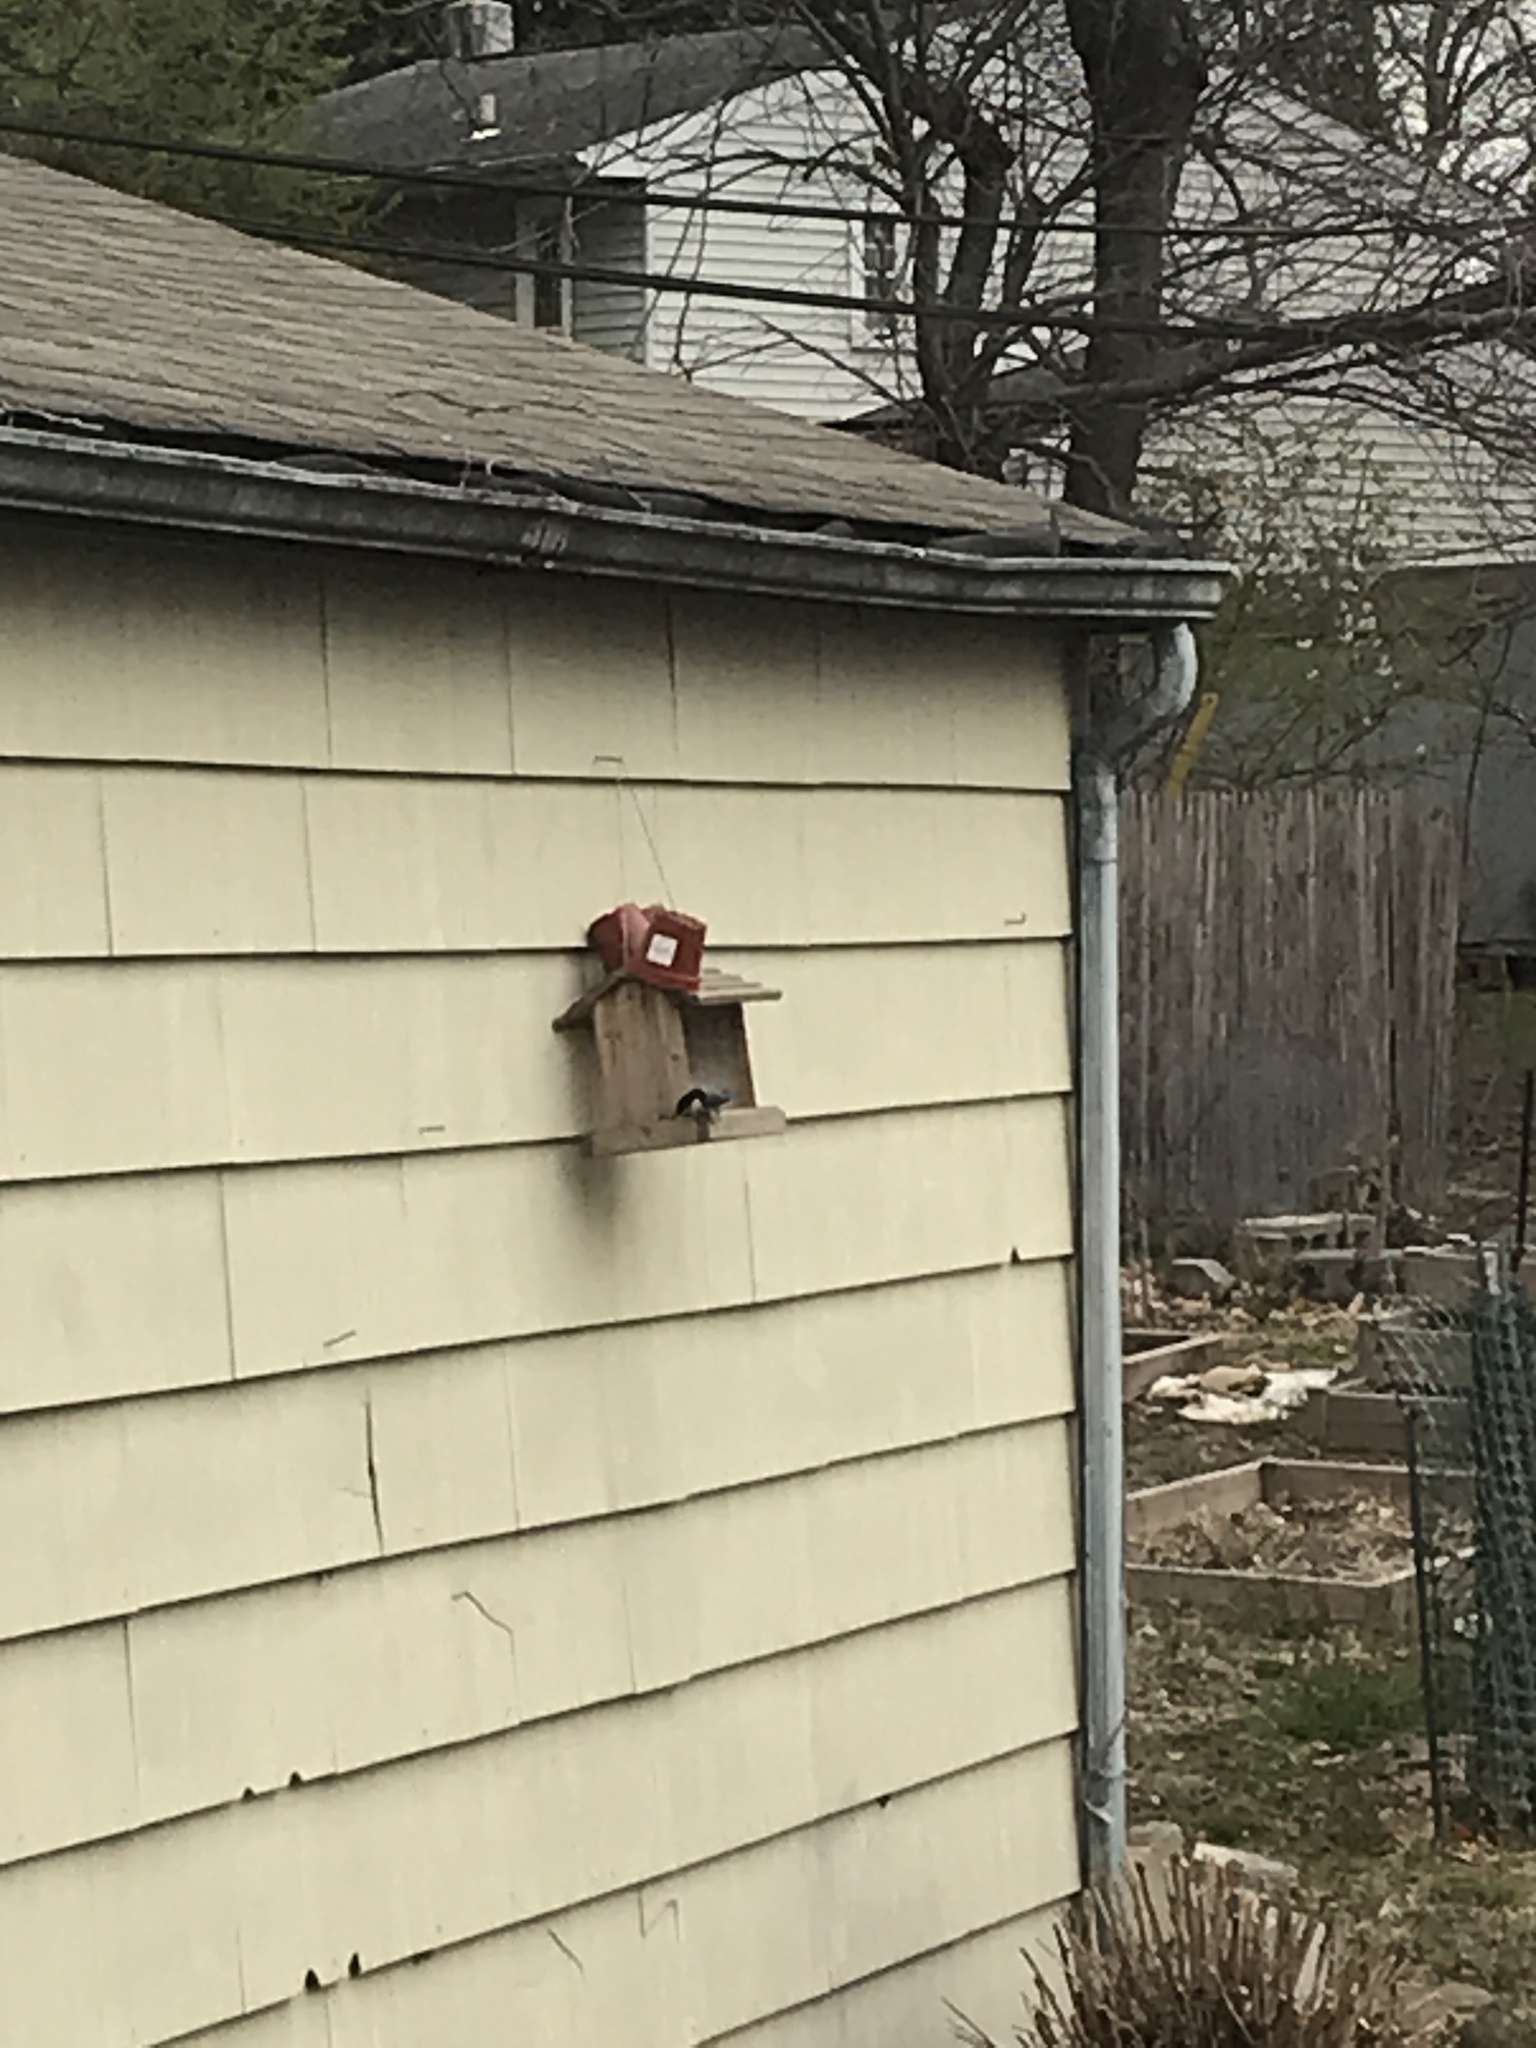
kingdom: Animalia
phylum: Chordata
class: Aves
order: Passeriformes
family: Sittidae
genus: Sitta
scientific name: Sitta carolinensis
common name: White-breasted nuthatch
